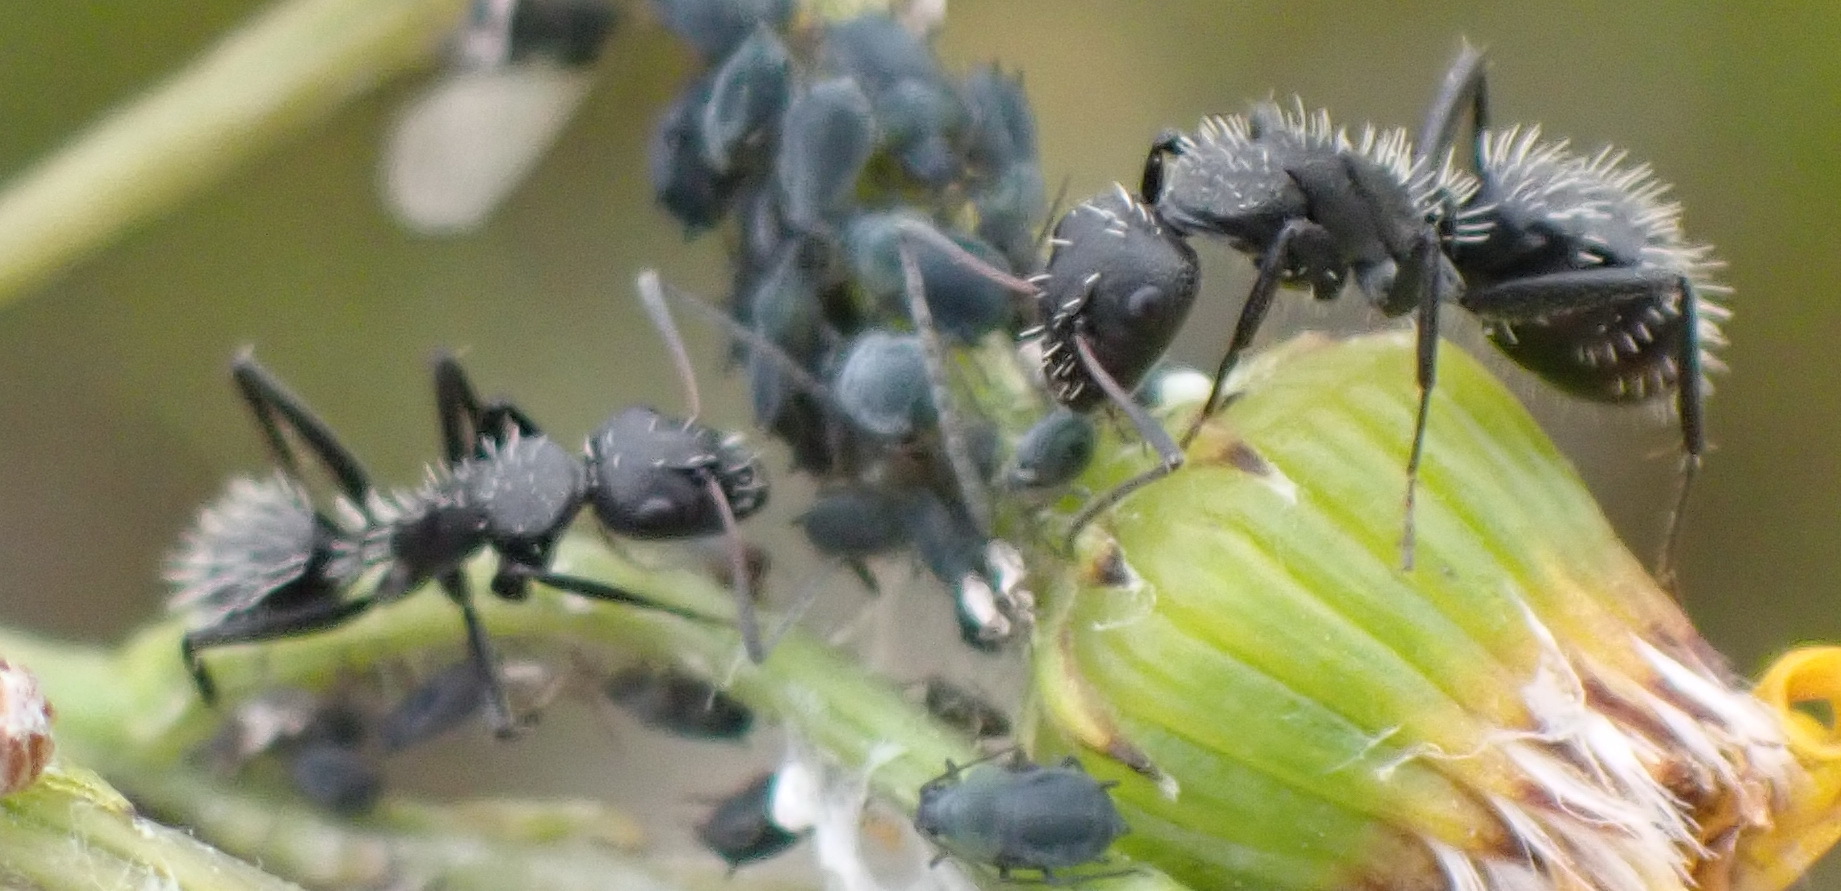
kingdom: Animalia
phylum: Arthropoda
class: Insecta
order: Hymenoptera
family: Formicidae
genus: Camponotus
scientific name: Camponotus niveosetosus
